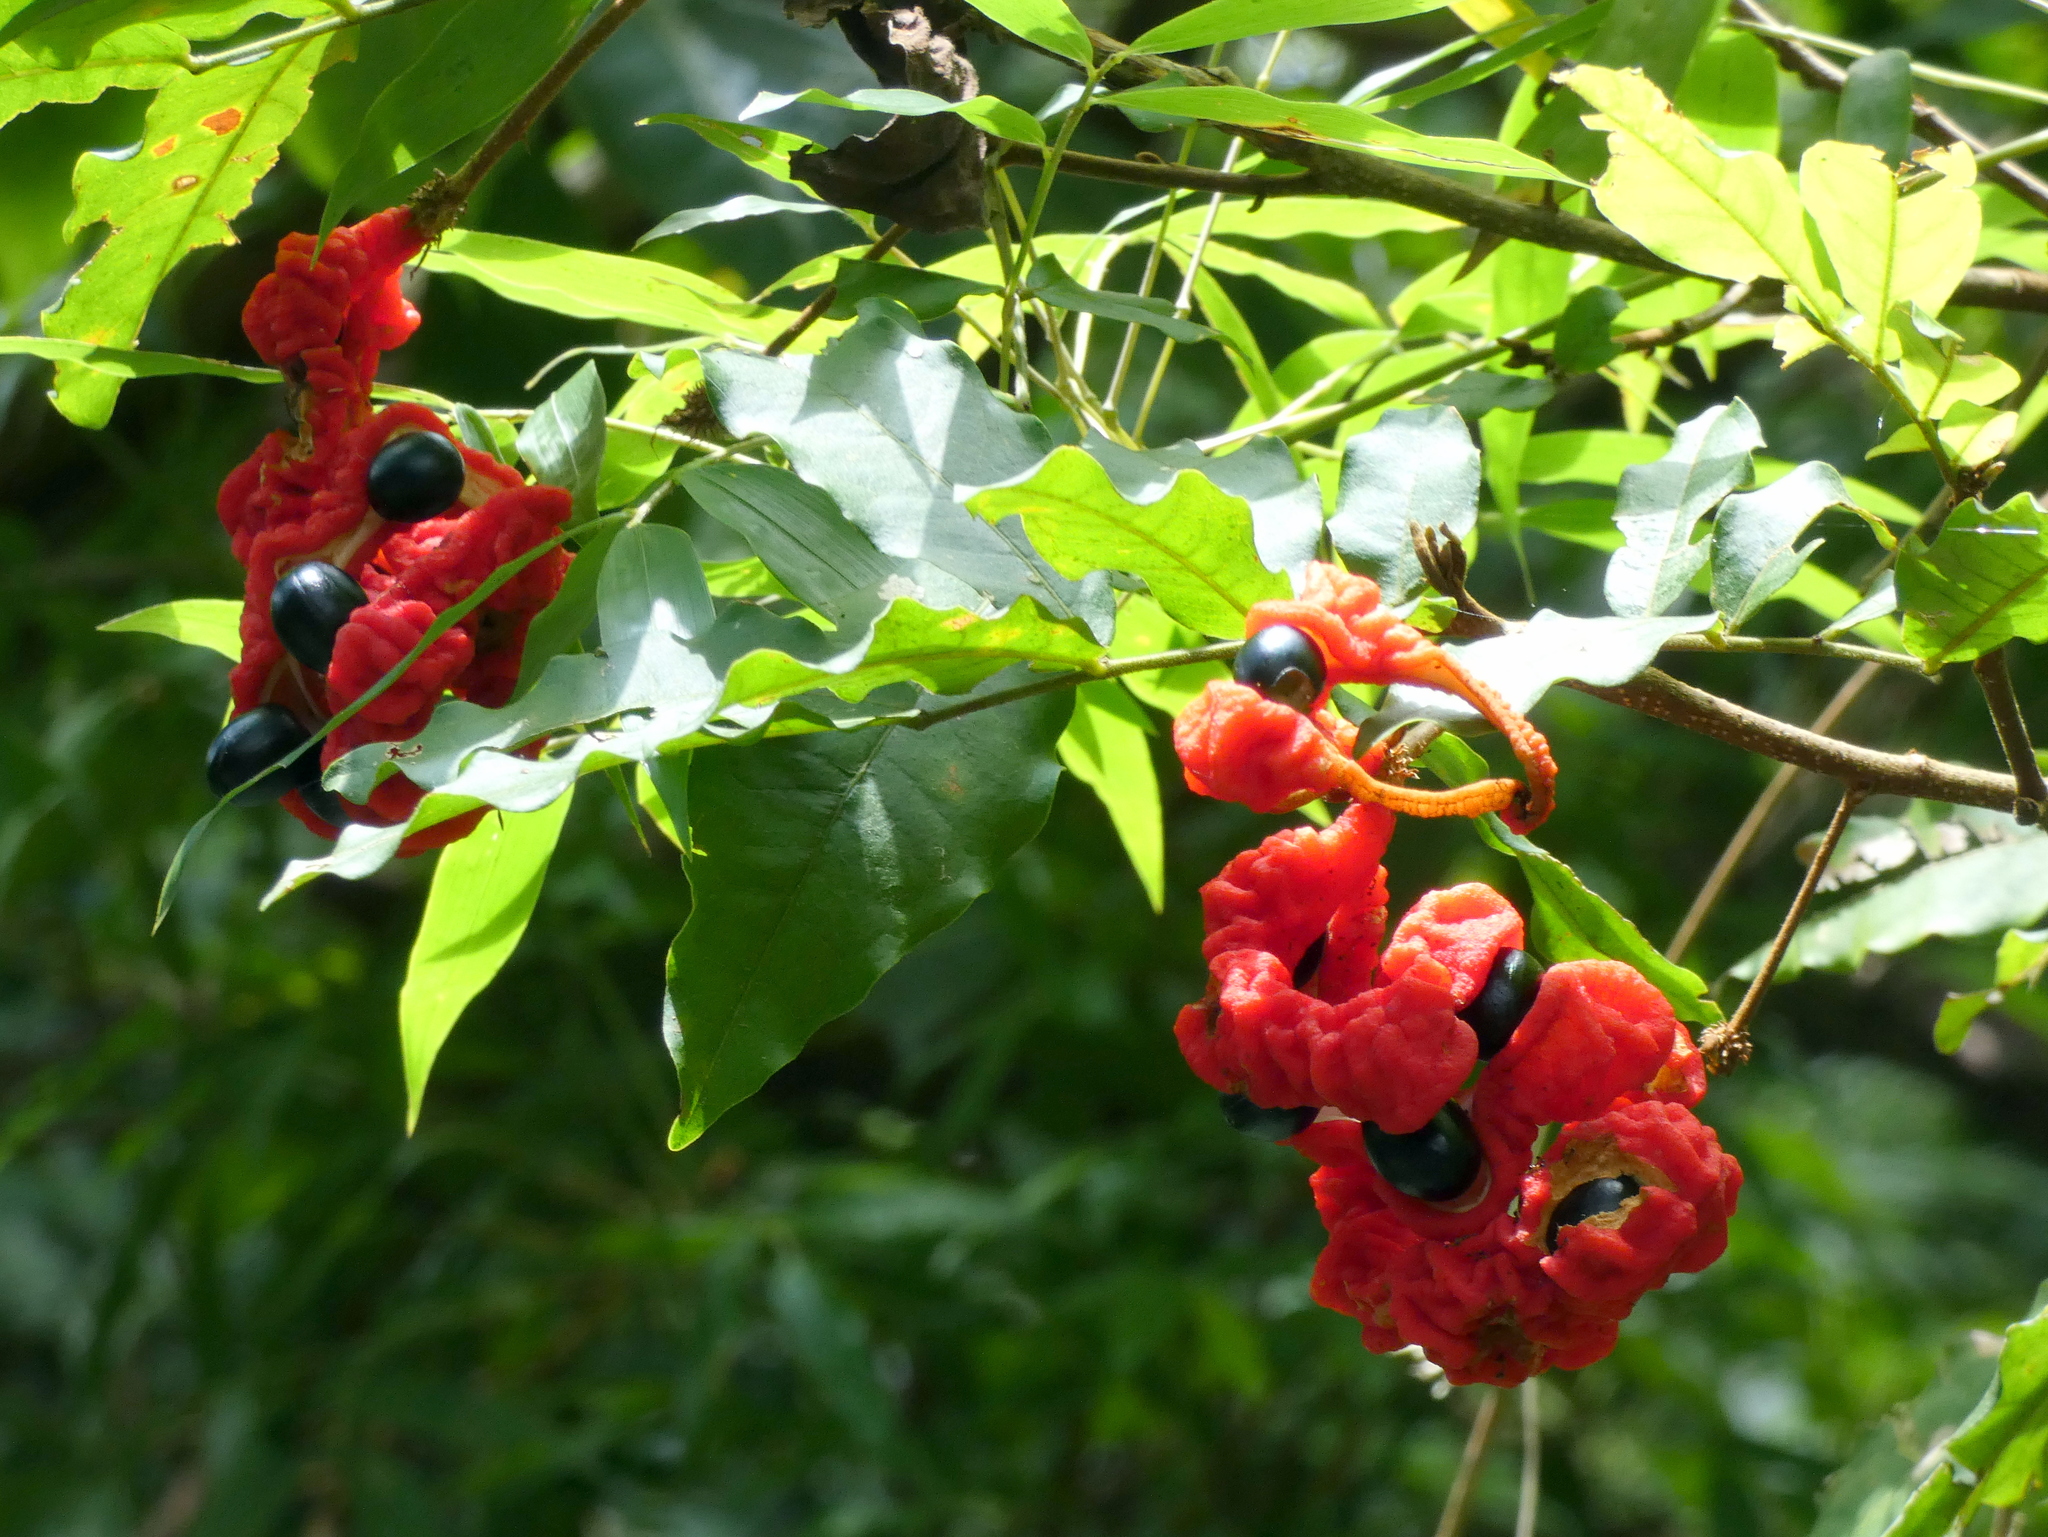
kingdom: Plantae
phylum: Tracheophyta
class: Magnoliopsida
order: Fabales
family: Fabaceae
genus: Cojoba
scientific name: Cojoba rufescens
